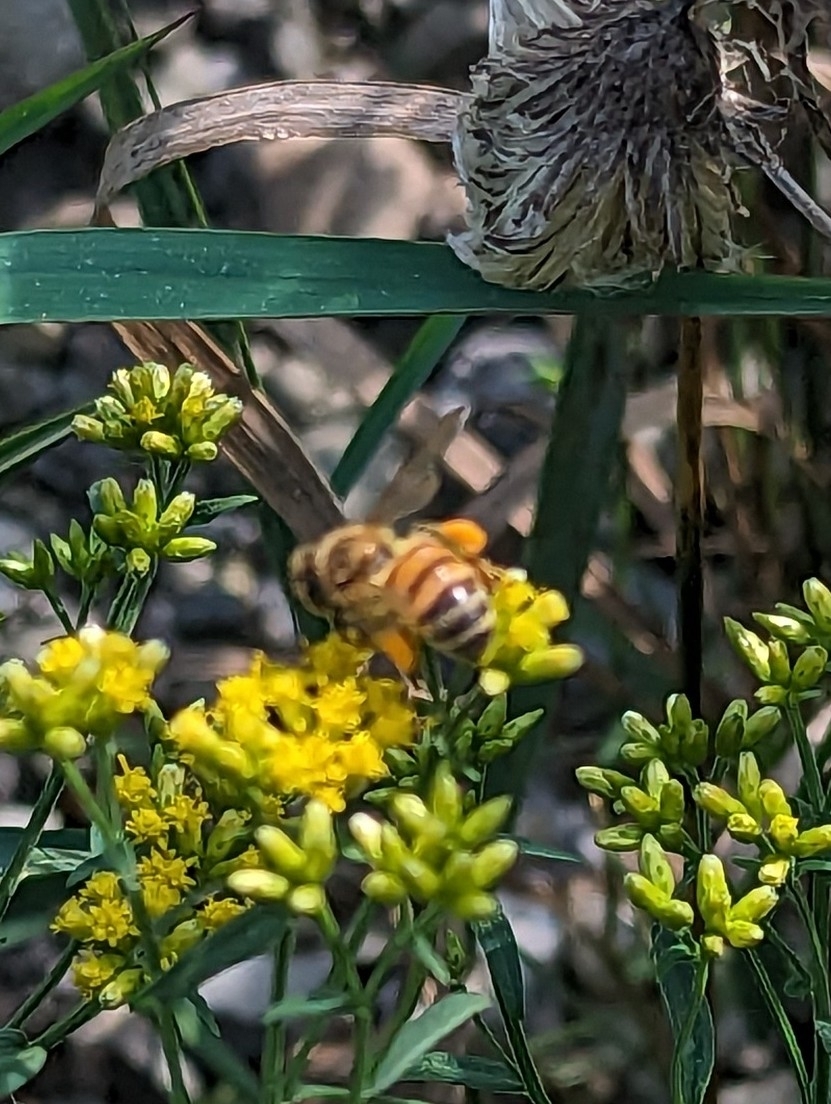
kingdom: Animalia
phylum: Arthropoda
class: Insecta
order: Hymenoptera
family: Apidae
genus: Apis
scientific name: Apis mellifera
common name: Honey bee
